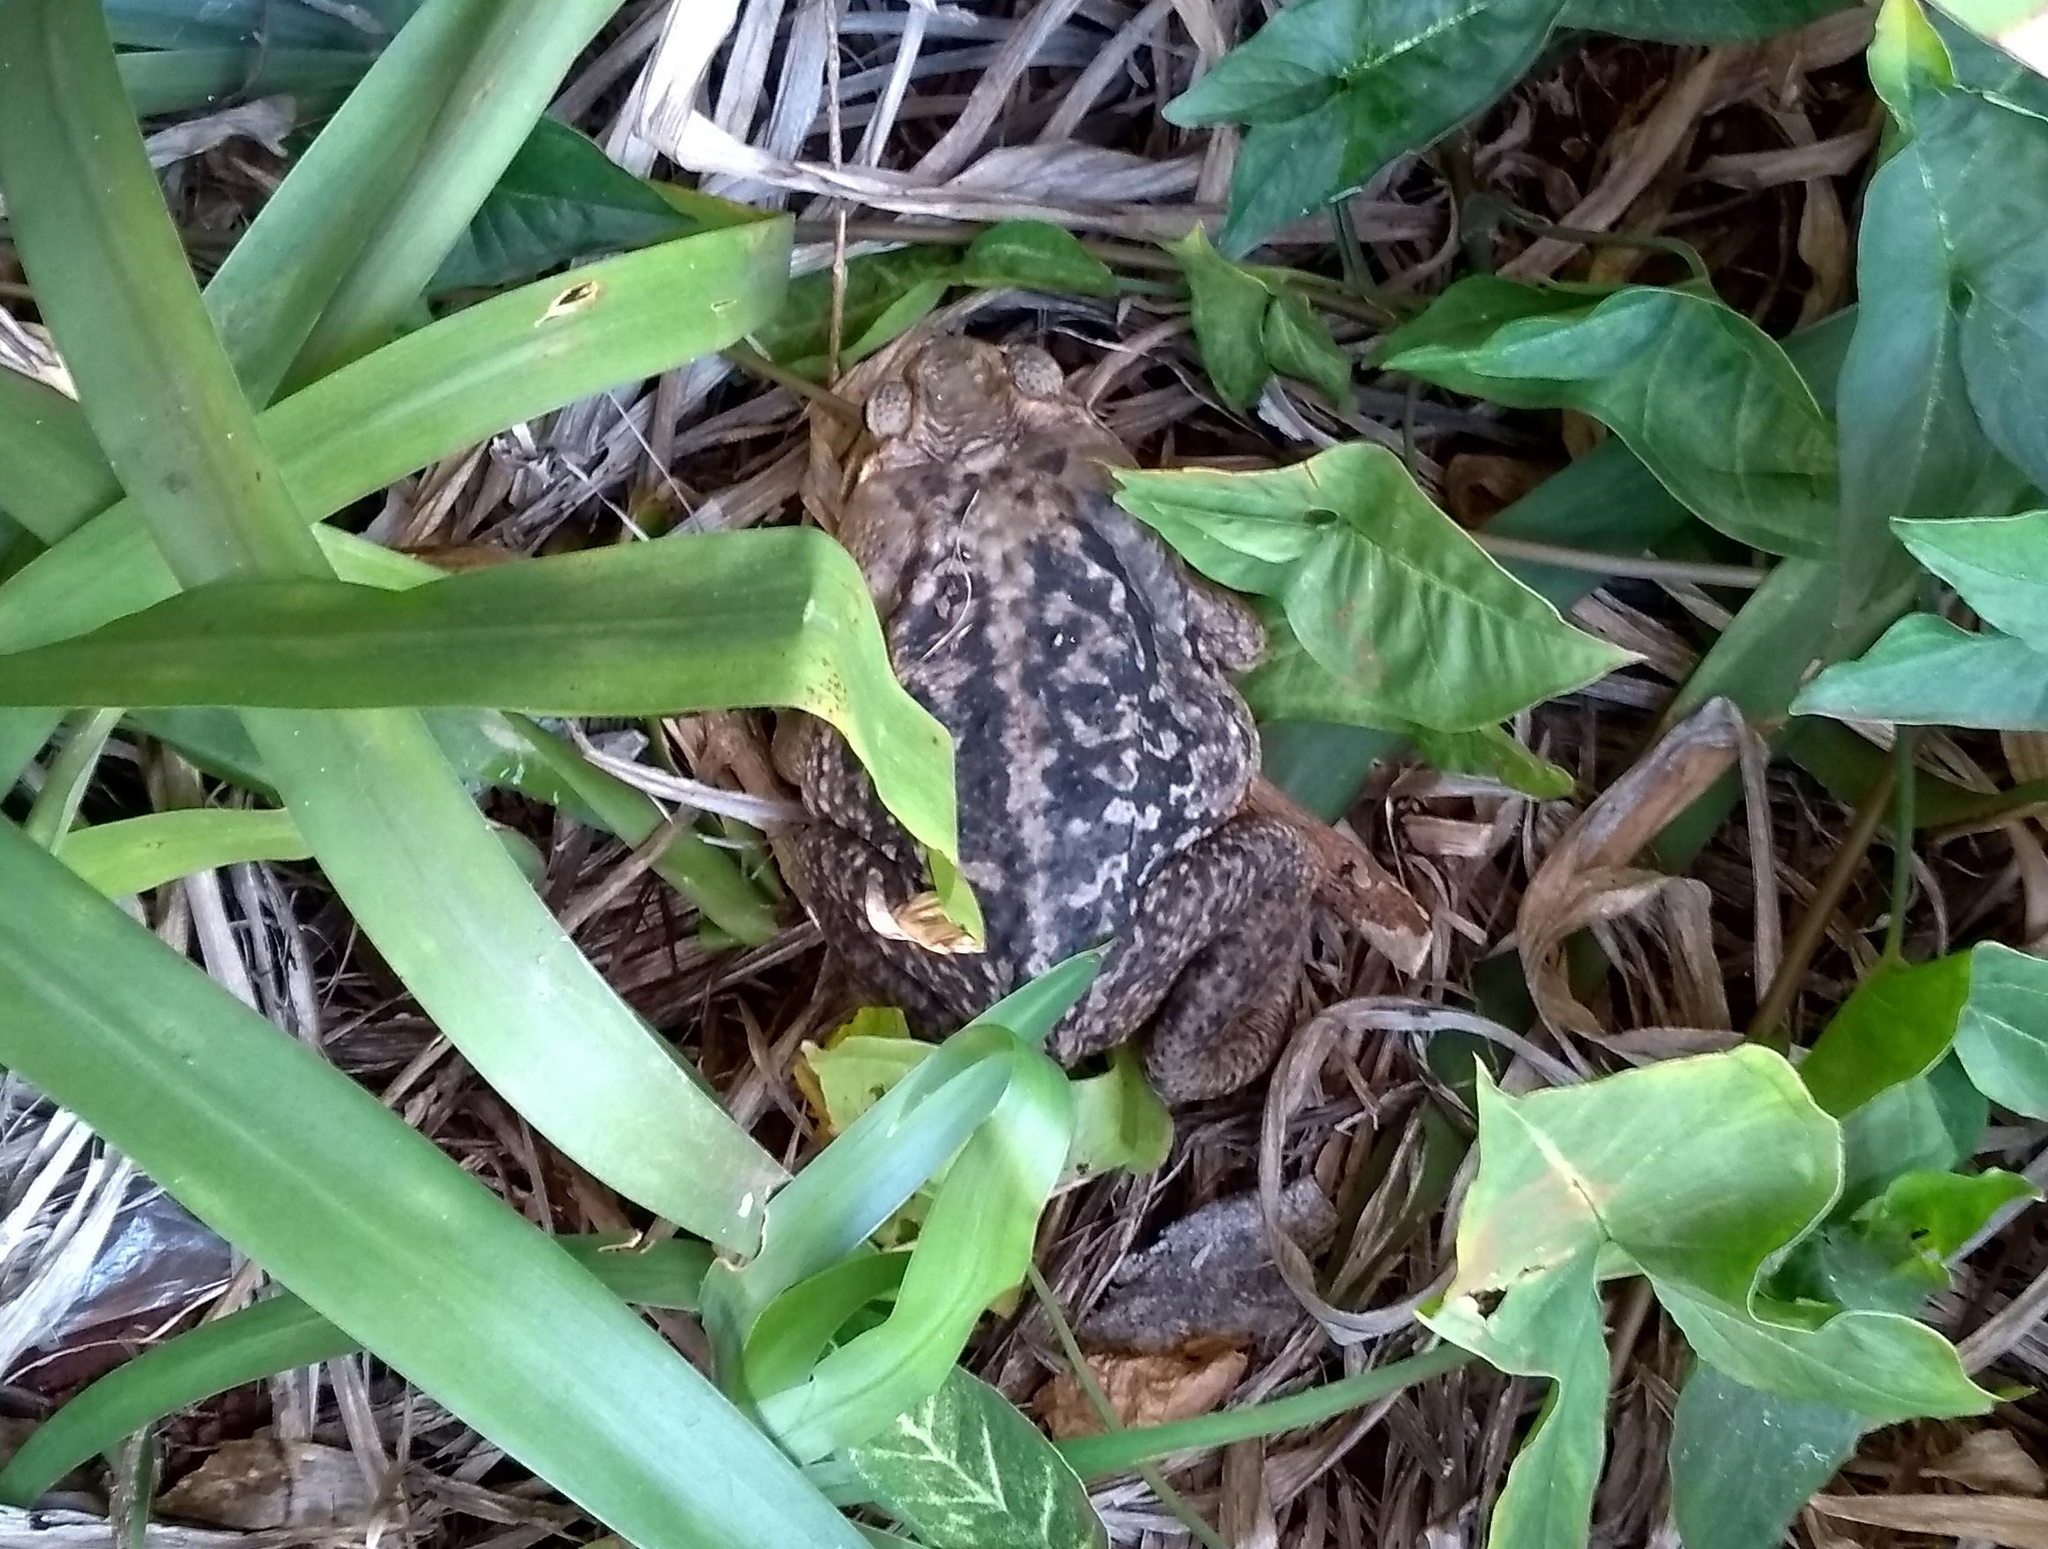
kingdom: Animalia
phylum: Chordata
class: Amphibia
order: Anura
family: Bufonidae
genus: Rhinella
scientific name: Rhinella diptycha
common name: Cope's toad
